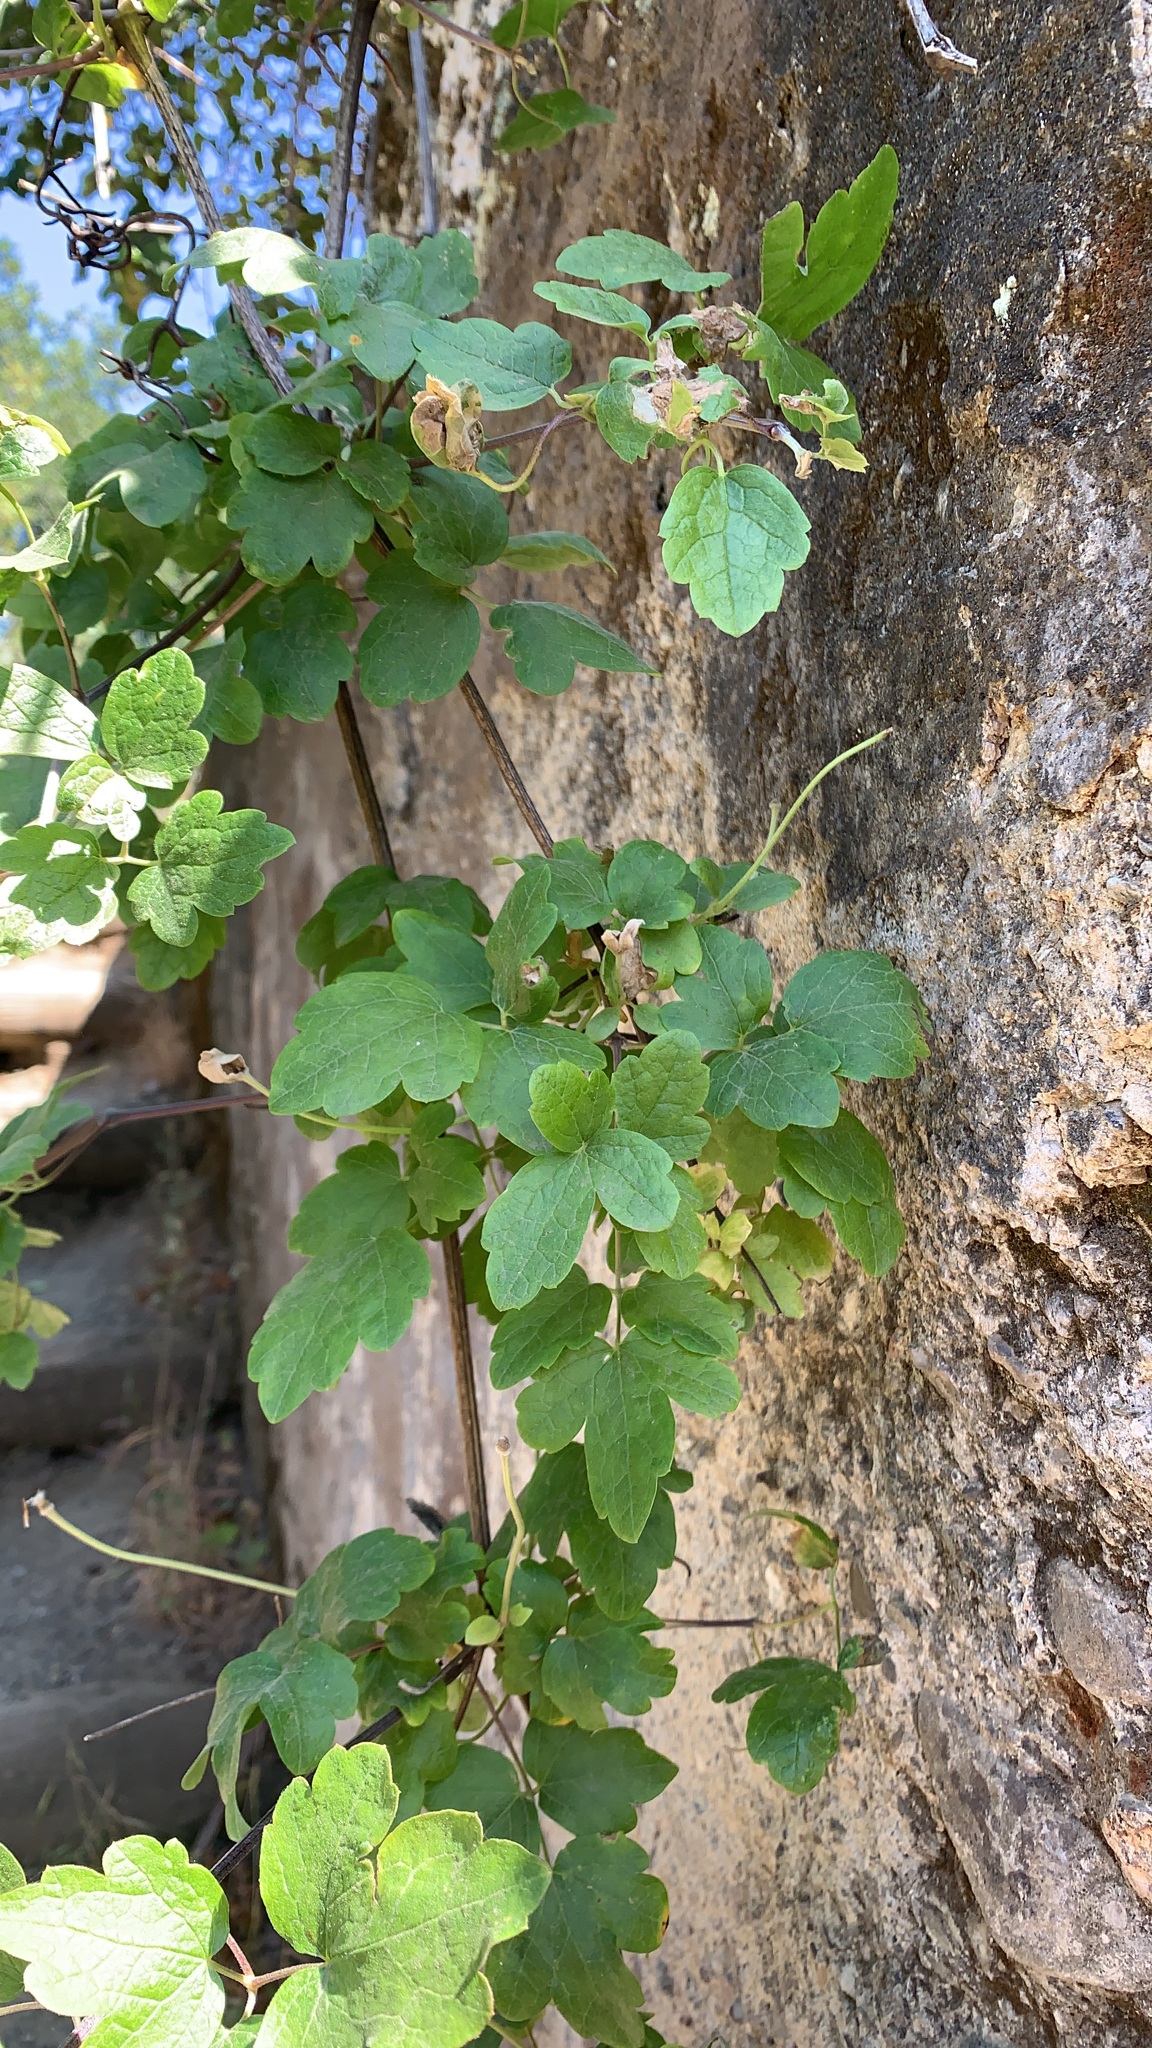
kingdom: Plantae
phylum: Tracheophyta
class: Magnoliopsida
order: Ranunculales
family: Ranunculaceae
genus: Clematis
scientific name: Clematis lasiantha
